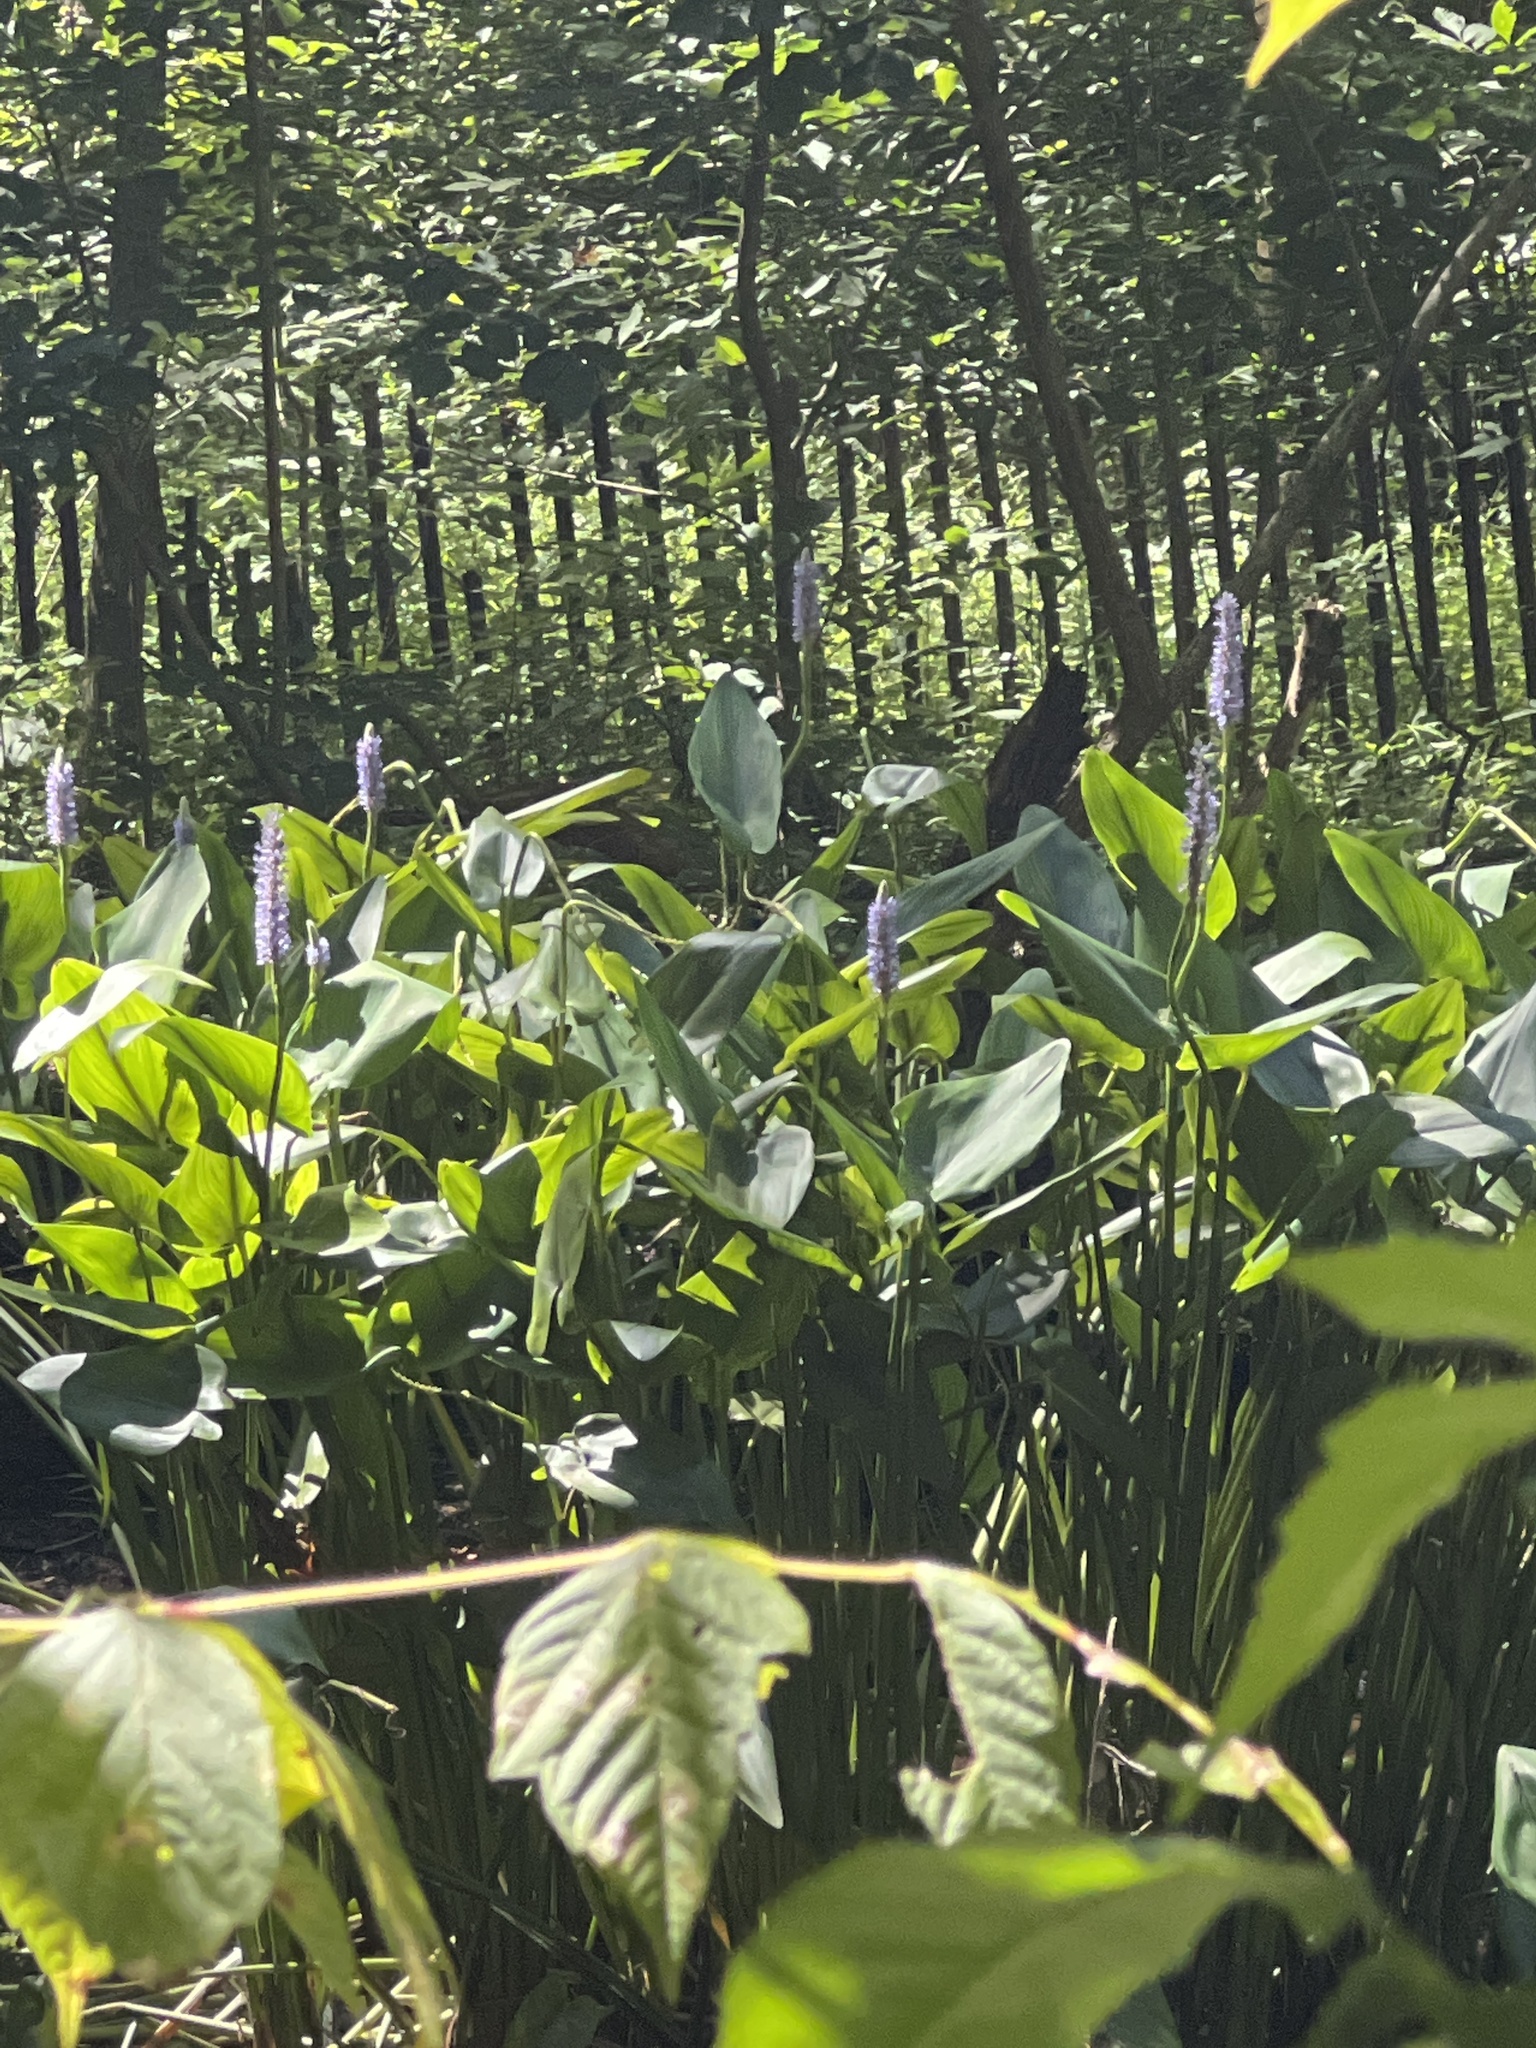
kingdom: Plantae
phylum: Tracheophyta
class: Liliopsida
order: Commelinales
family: Pontederiaceae
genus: Pontederia
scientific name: Pontederia cordata
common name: Pickerelweed
